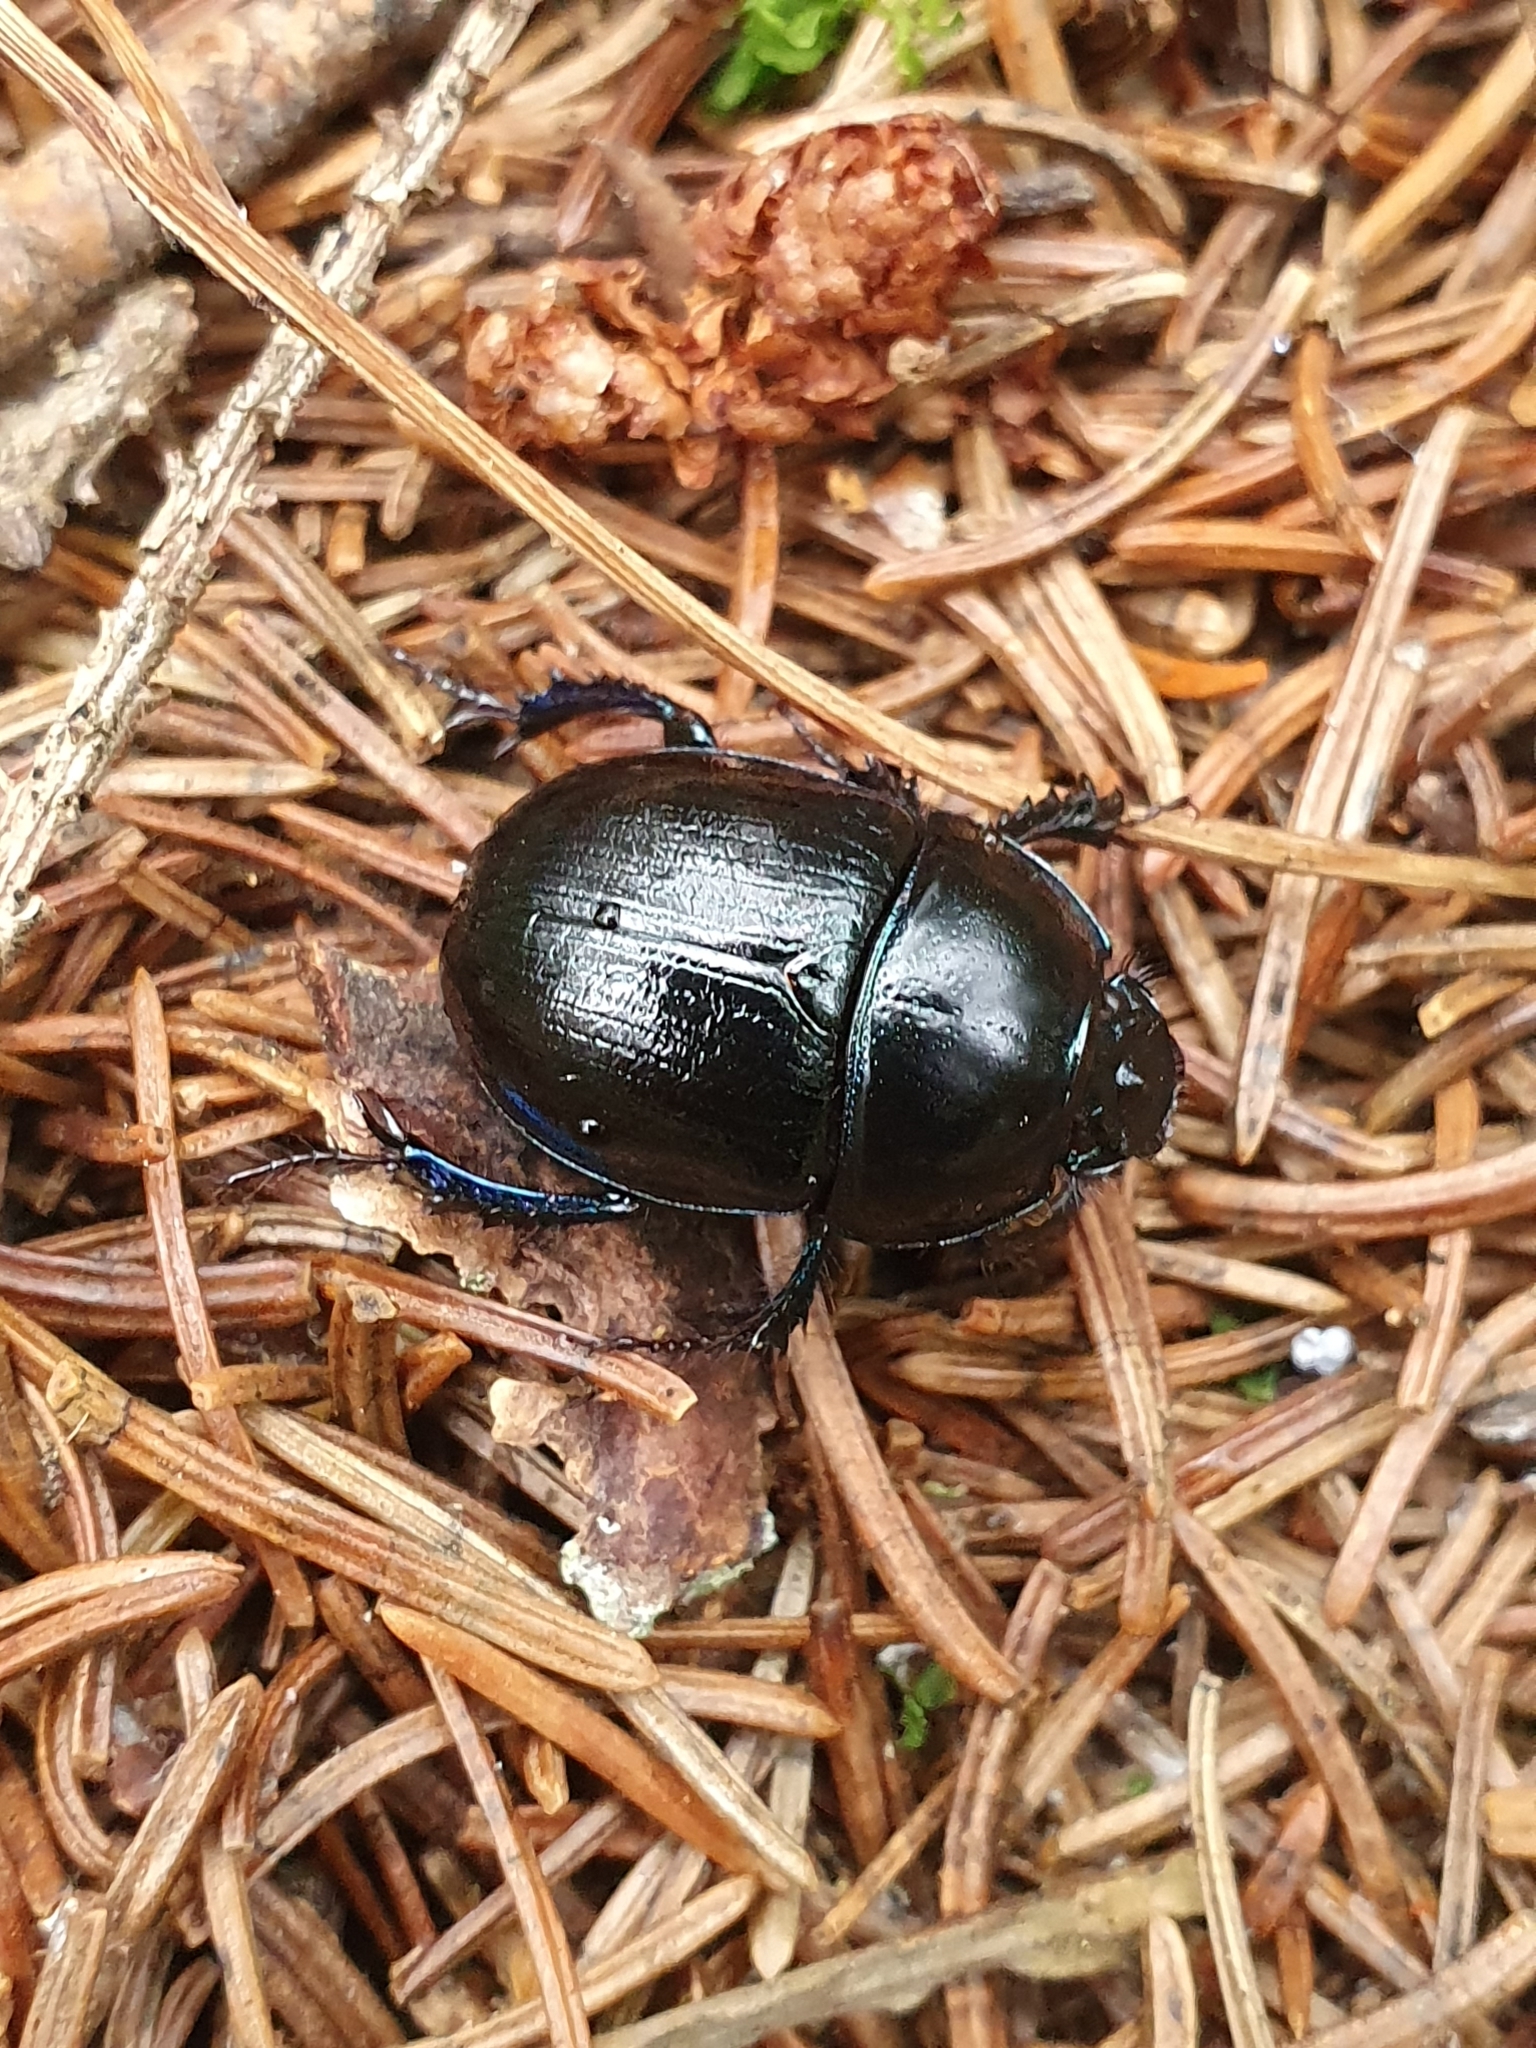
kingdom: Animalia
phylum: Arthropoda
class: Insecta
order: Coleoptera
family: Geotrupidae
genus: Anoplotrupes
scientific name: Anoplotrupes stercorosus
